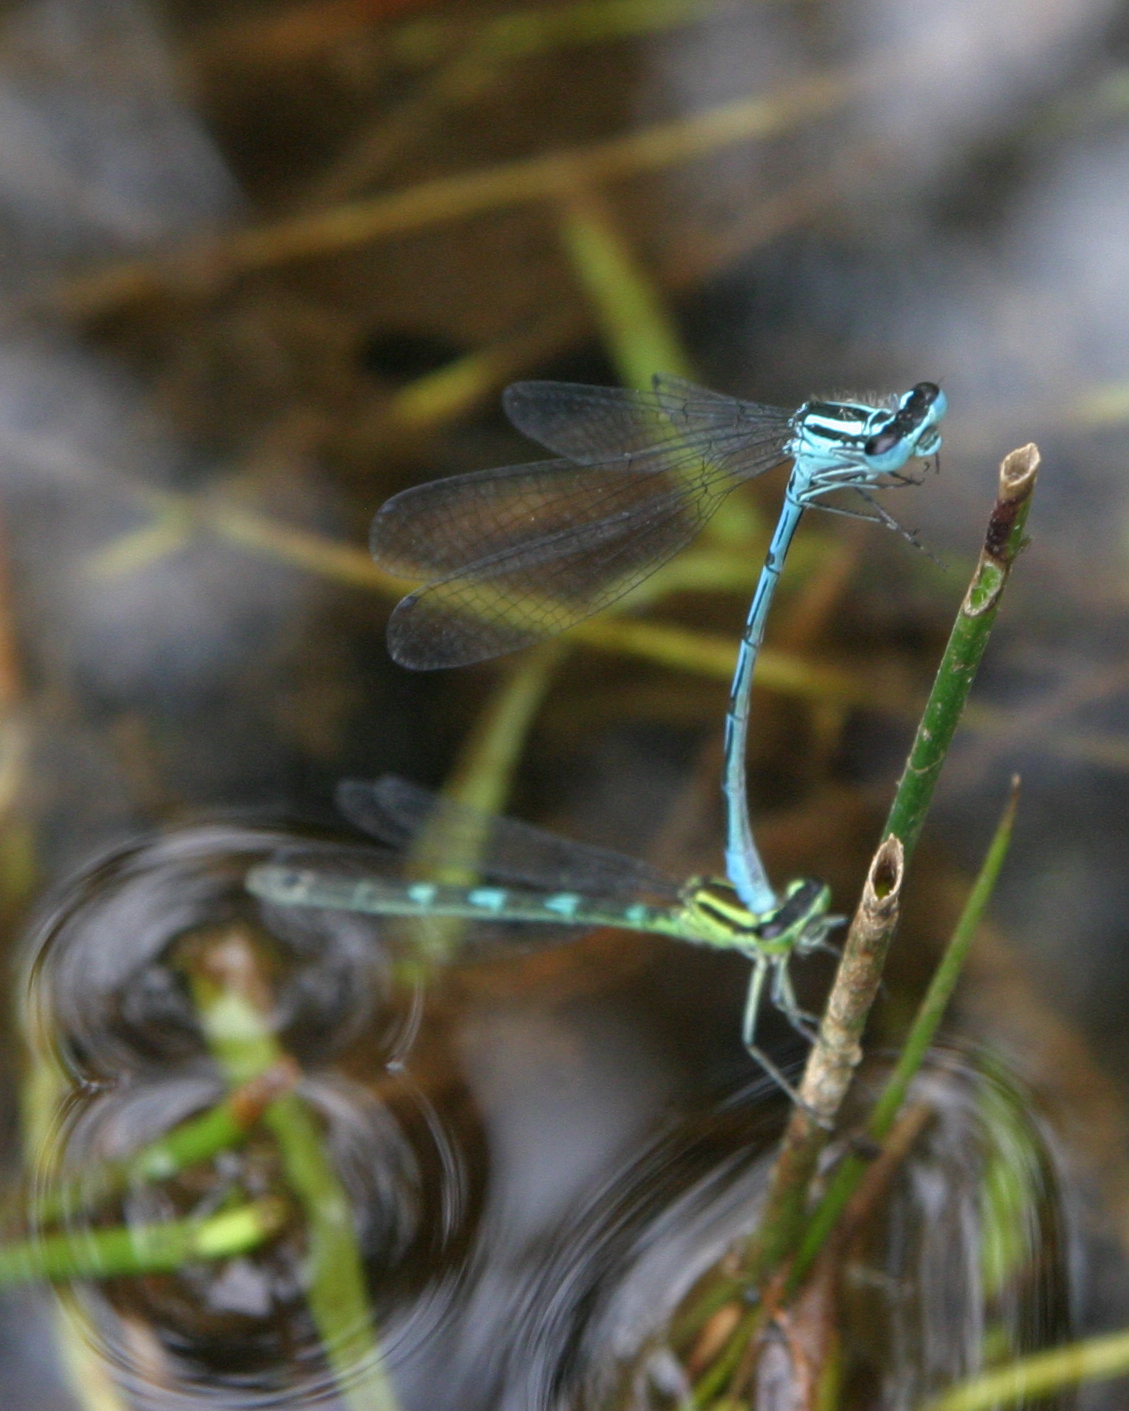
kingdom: Animalia
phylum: Arthropoda
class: Insecta
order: Odonata
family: Coenagrionidae
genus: Coenagrion
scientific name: Coenagrion puella
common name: Azure damselfly
